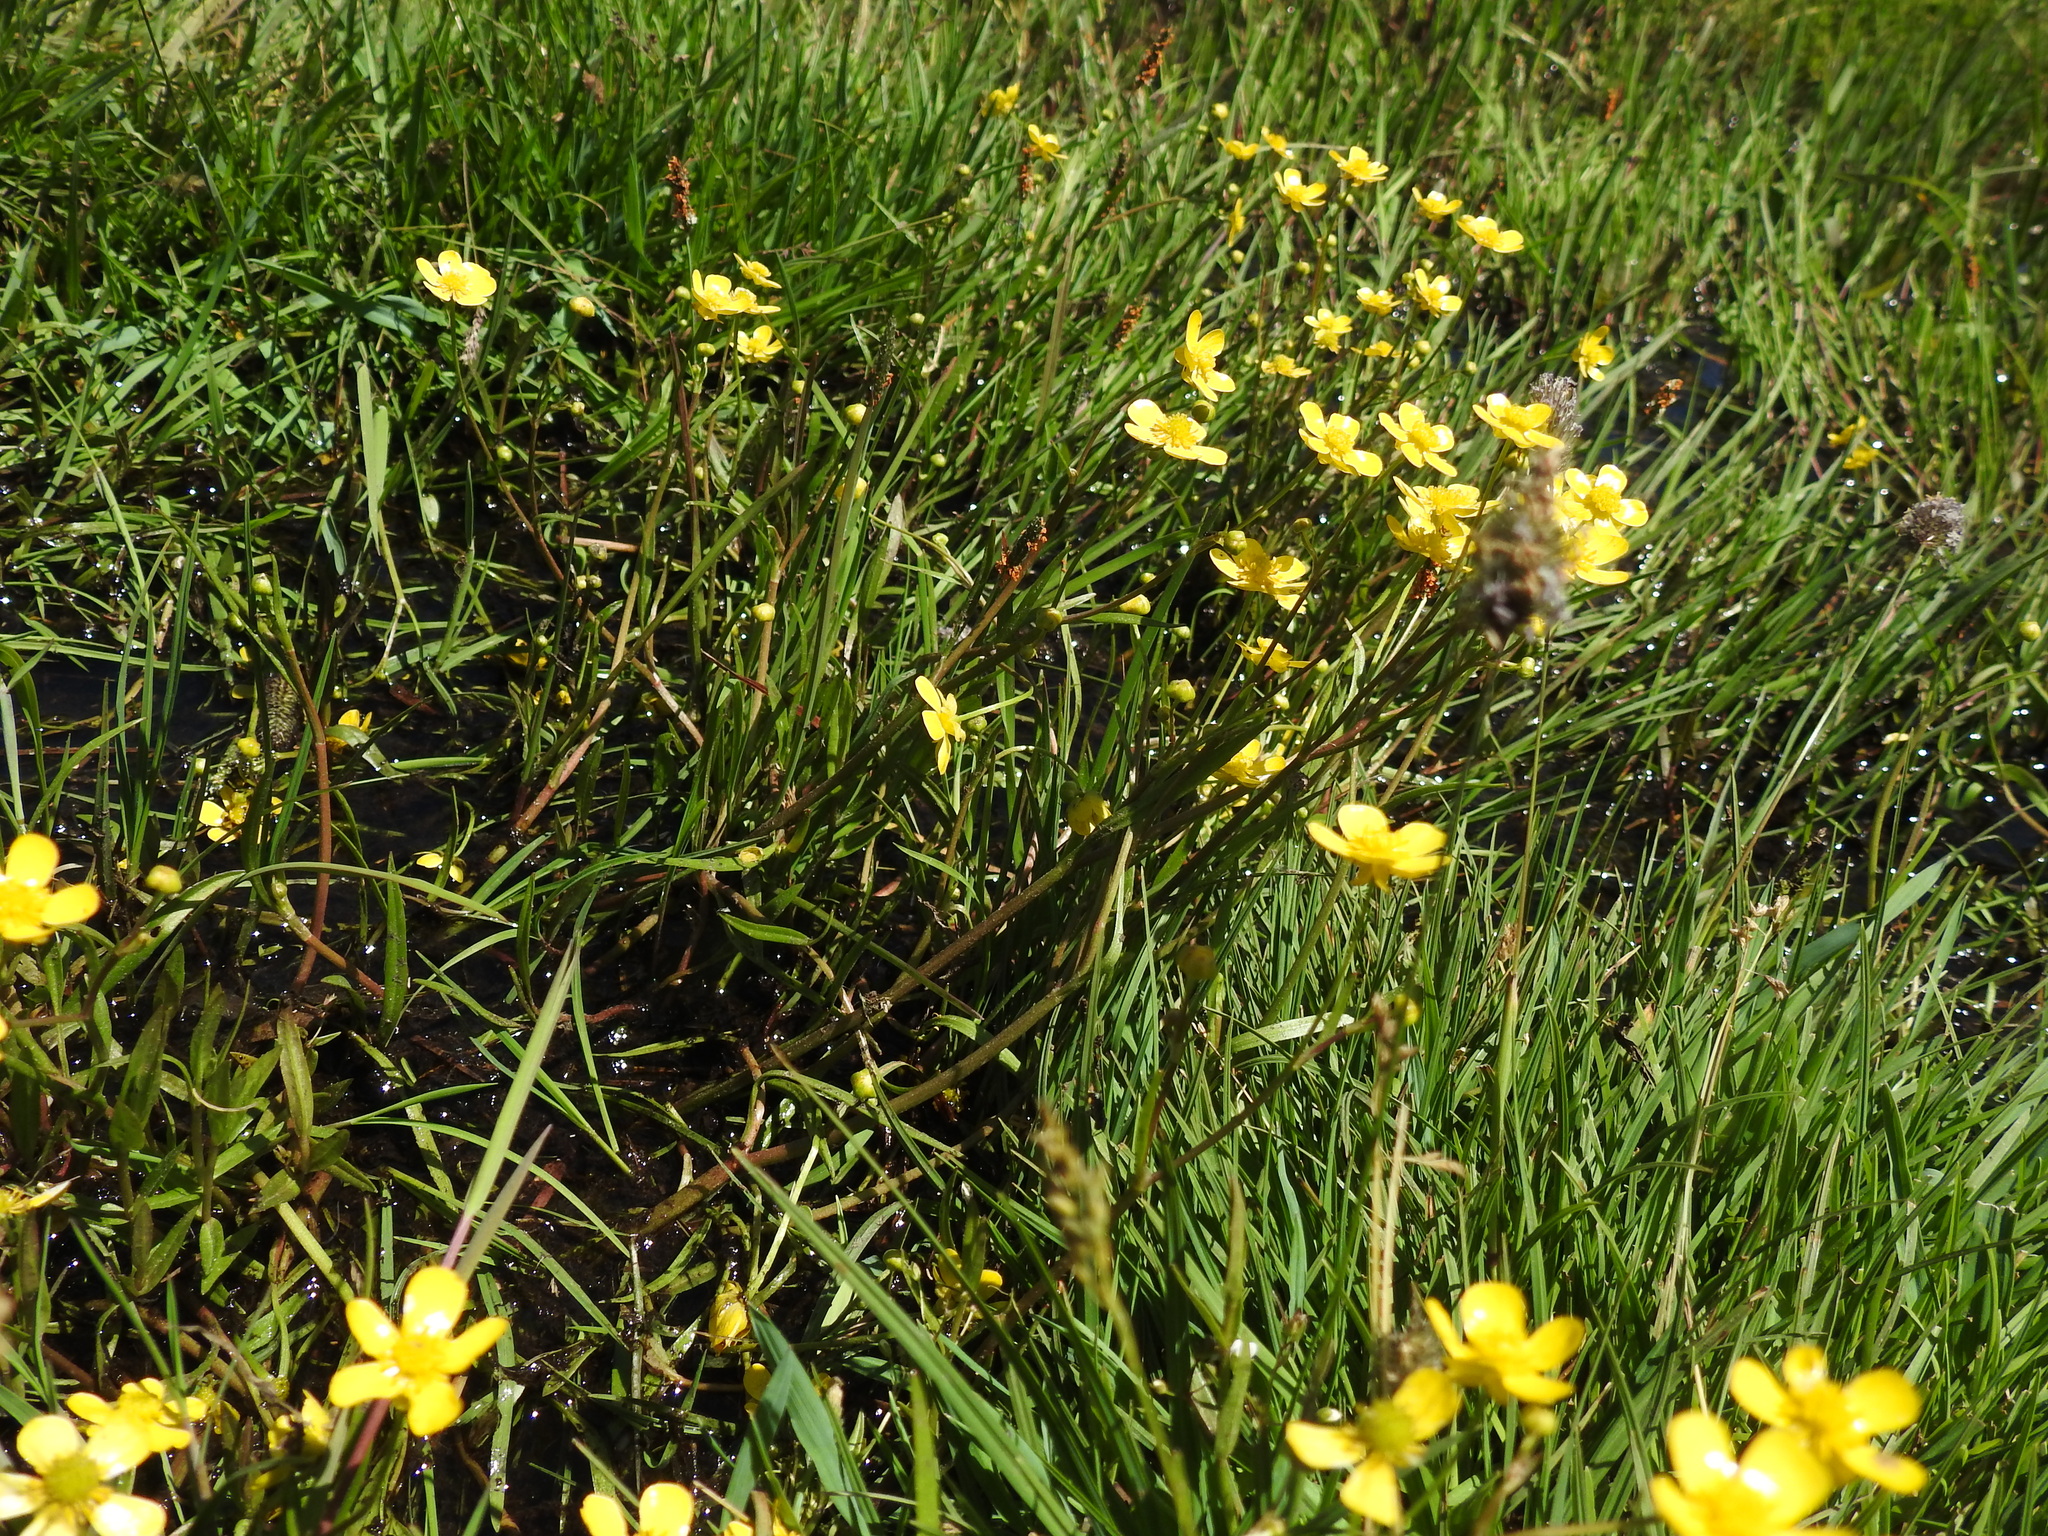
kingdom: Plantae
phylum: Tracheophyta
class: Magnoliopsida
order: Ranunculales
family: Ranunculaceae
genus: Ranunculus
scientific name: Ranunculus flammula
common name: Lesser spearwort
